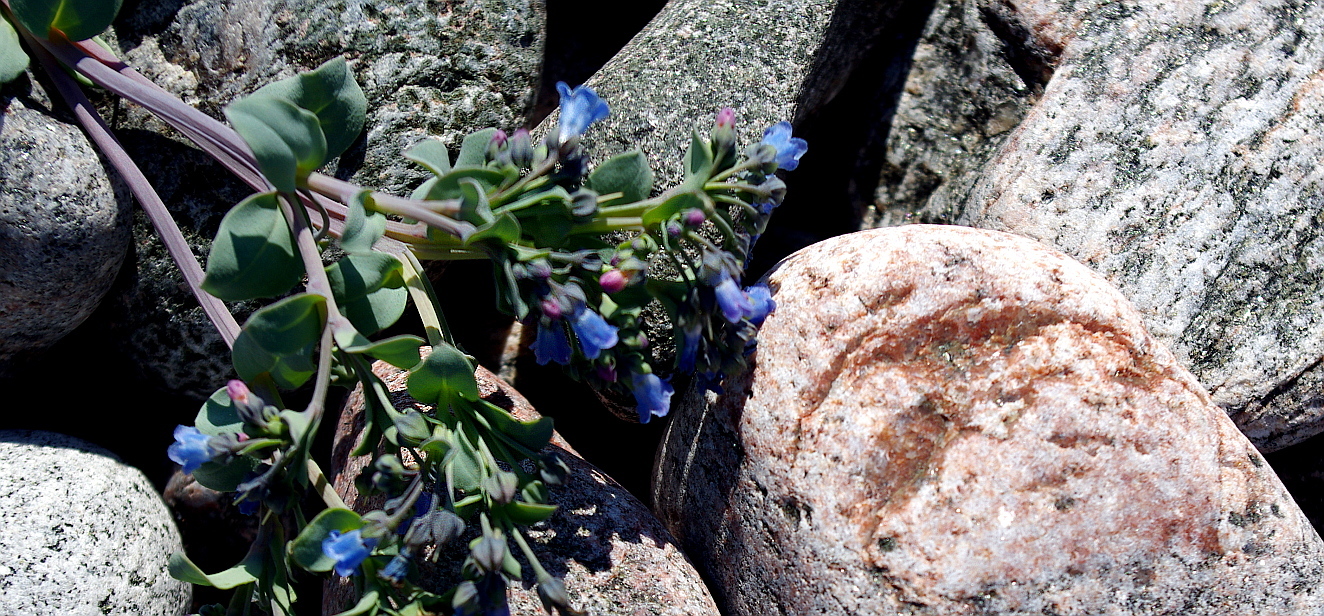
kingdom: Plantae
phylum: Tracheophyta
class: Magnoliopsida
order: Boraginales
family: Boraginaceae
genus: Mertensia
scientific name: Mertensia maritima
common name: Oysterplant
